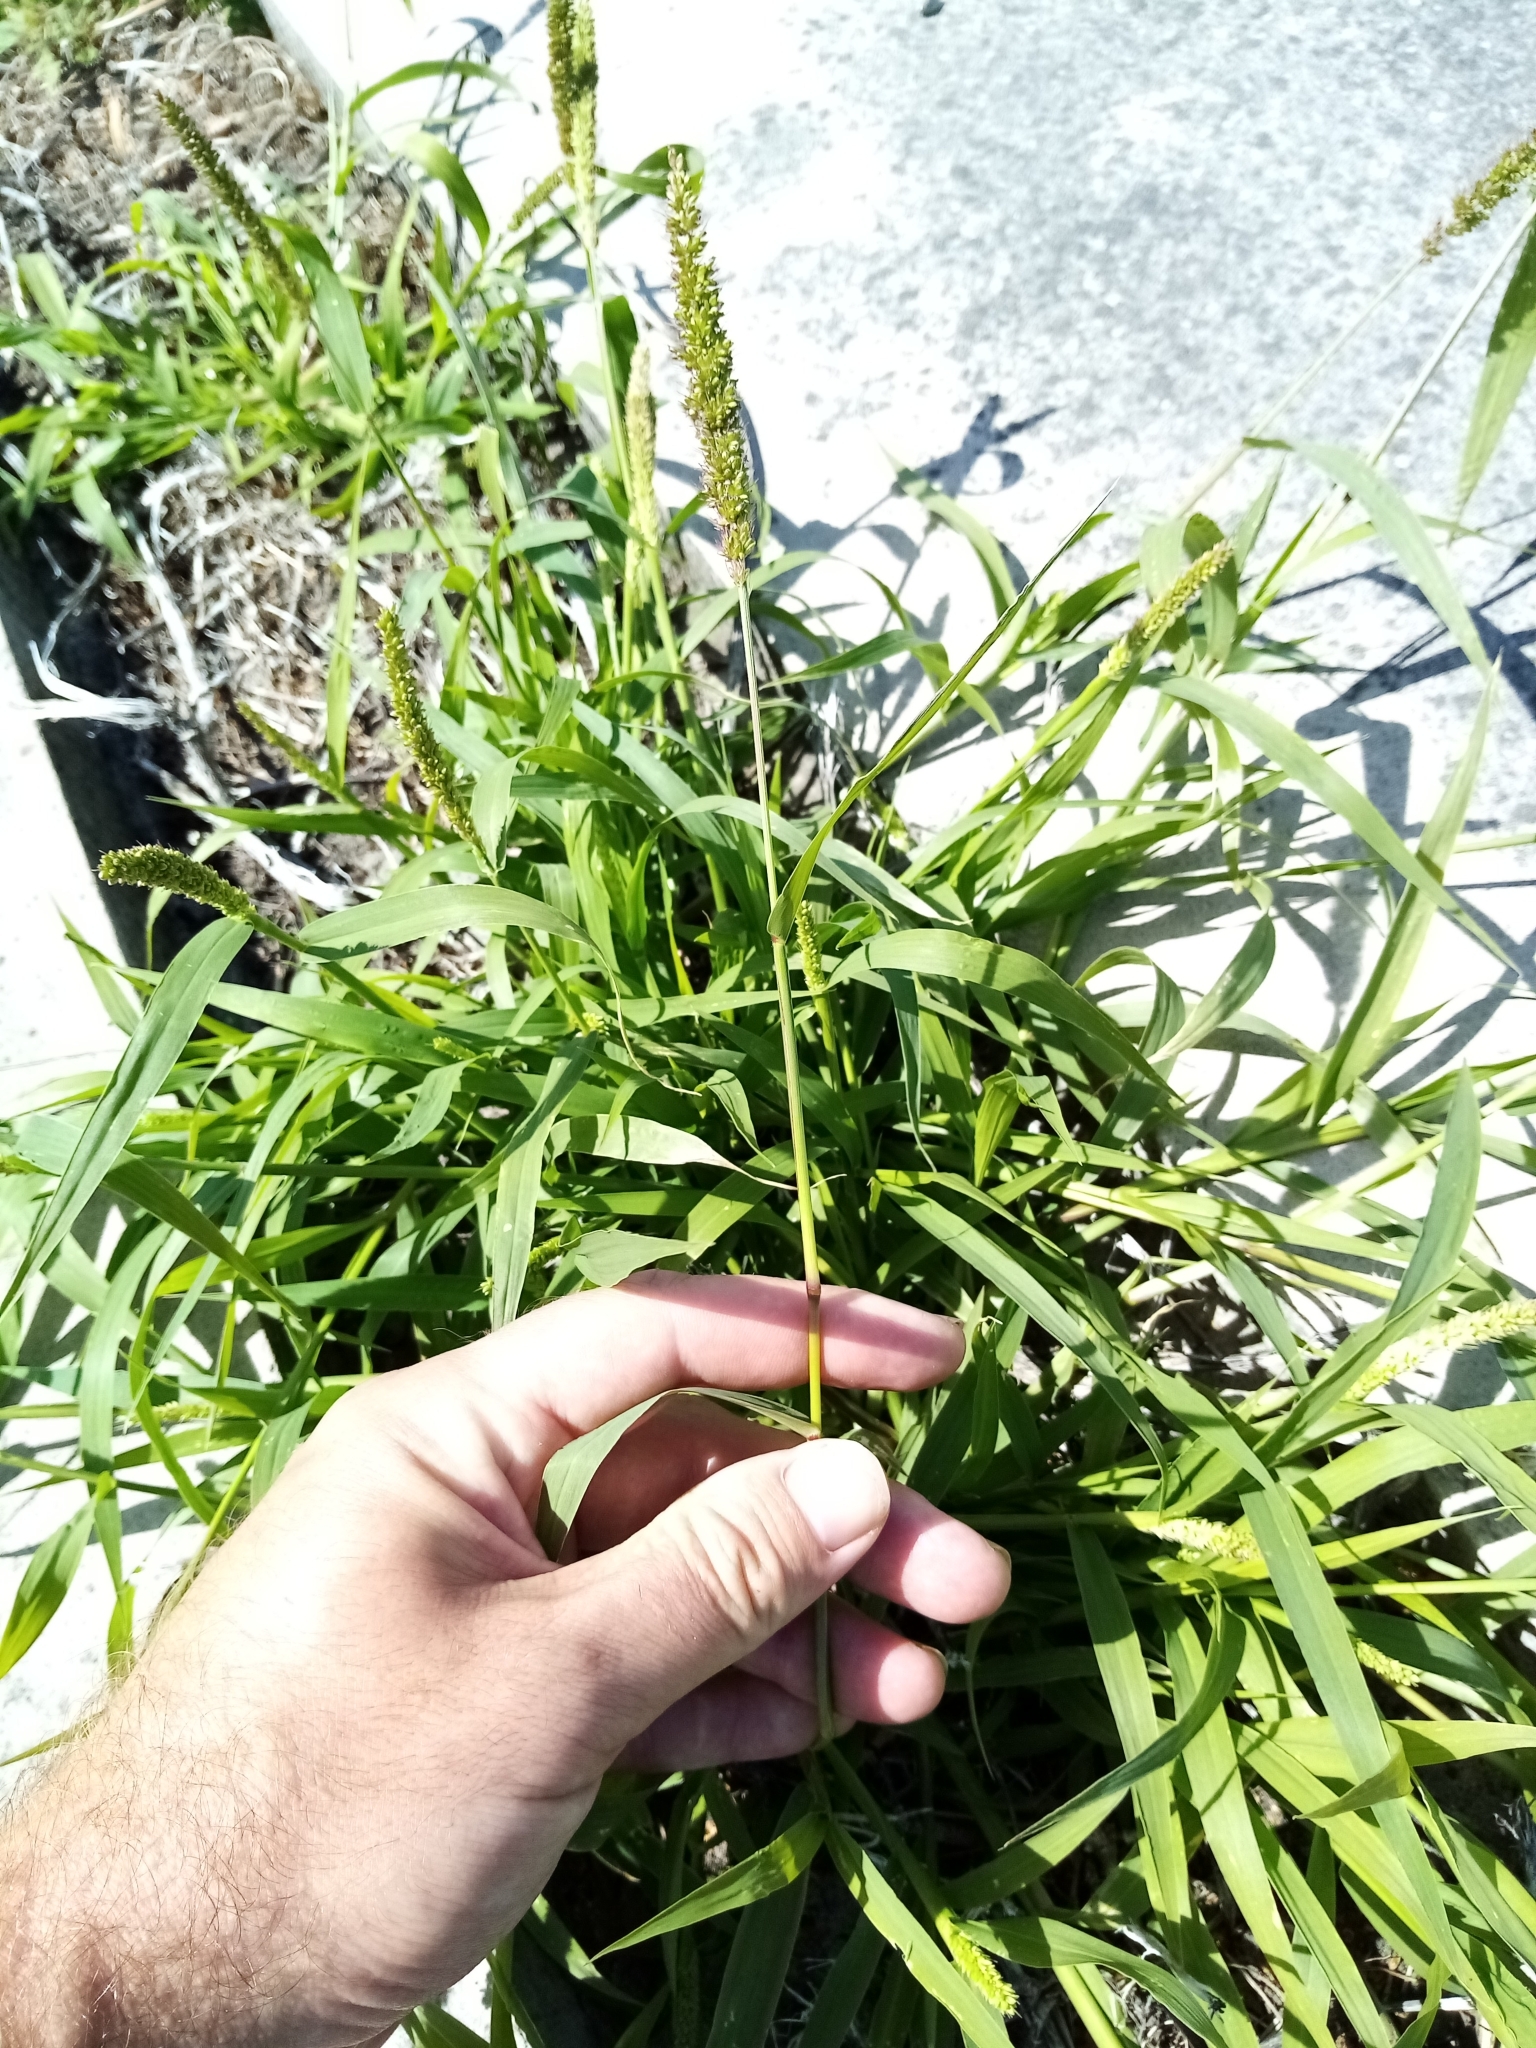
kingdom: Plantae
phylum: Tracheophyta
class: Liliopsida
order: Poales
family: Poaceae
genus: Setaria
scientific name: Setaria verticillata
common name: Hooked bristlegrass
